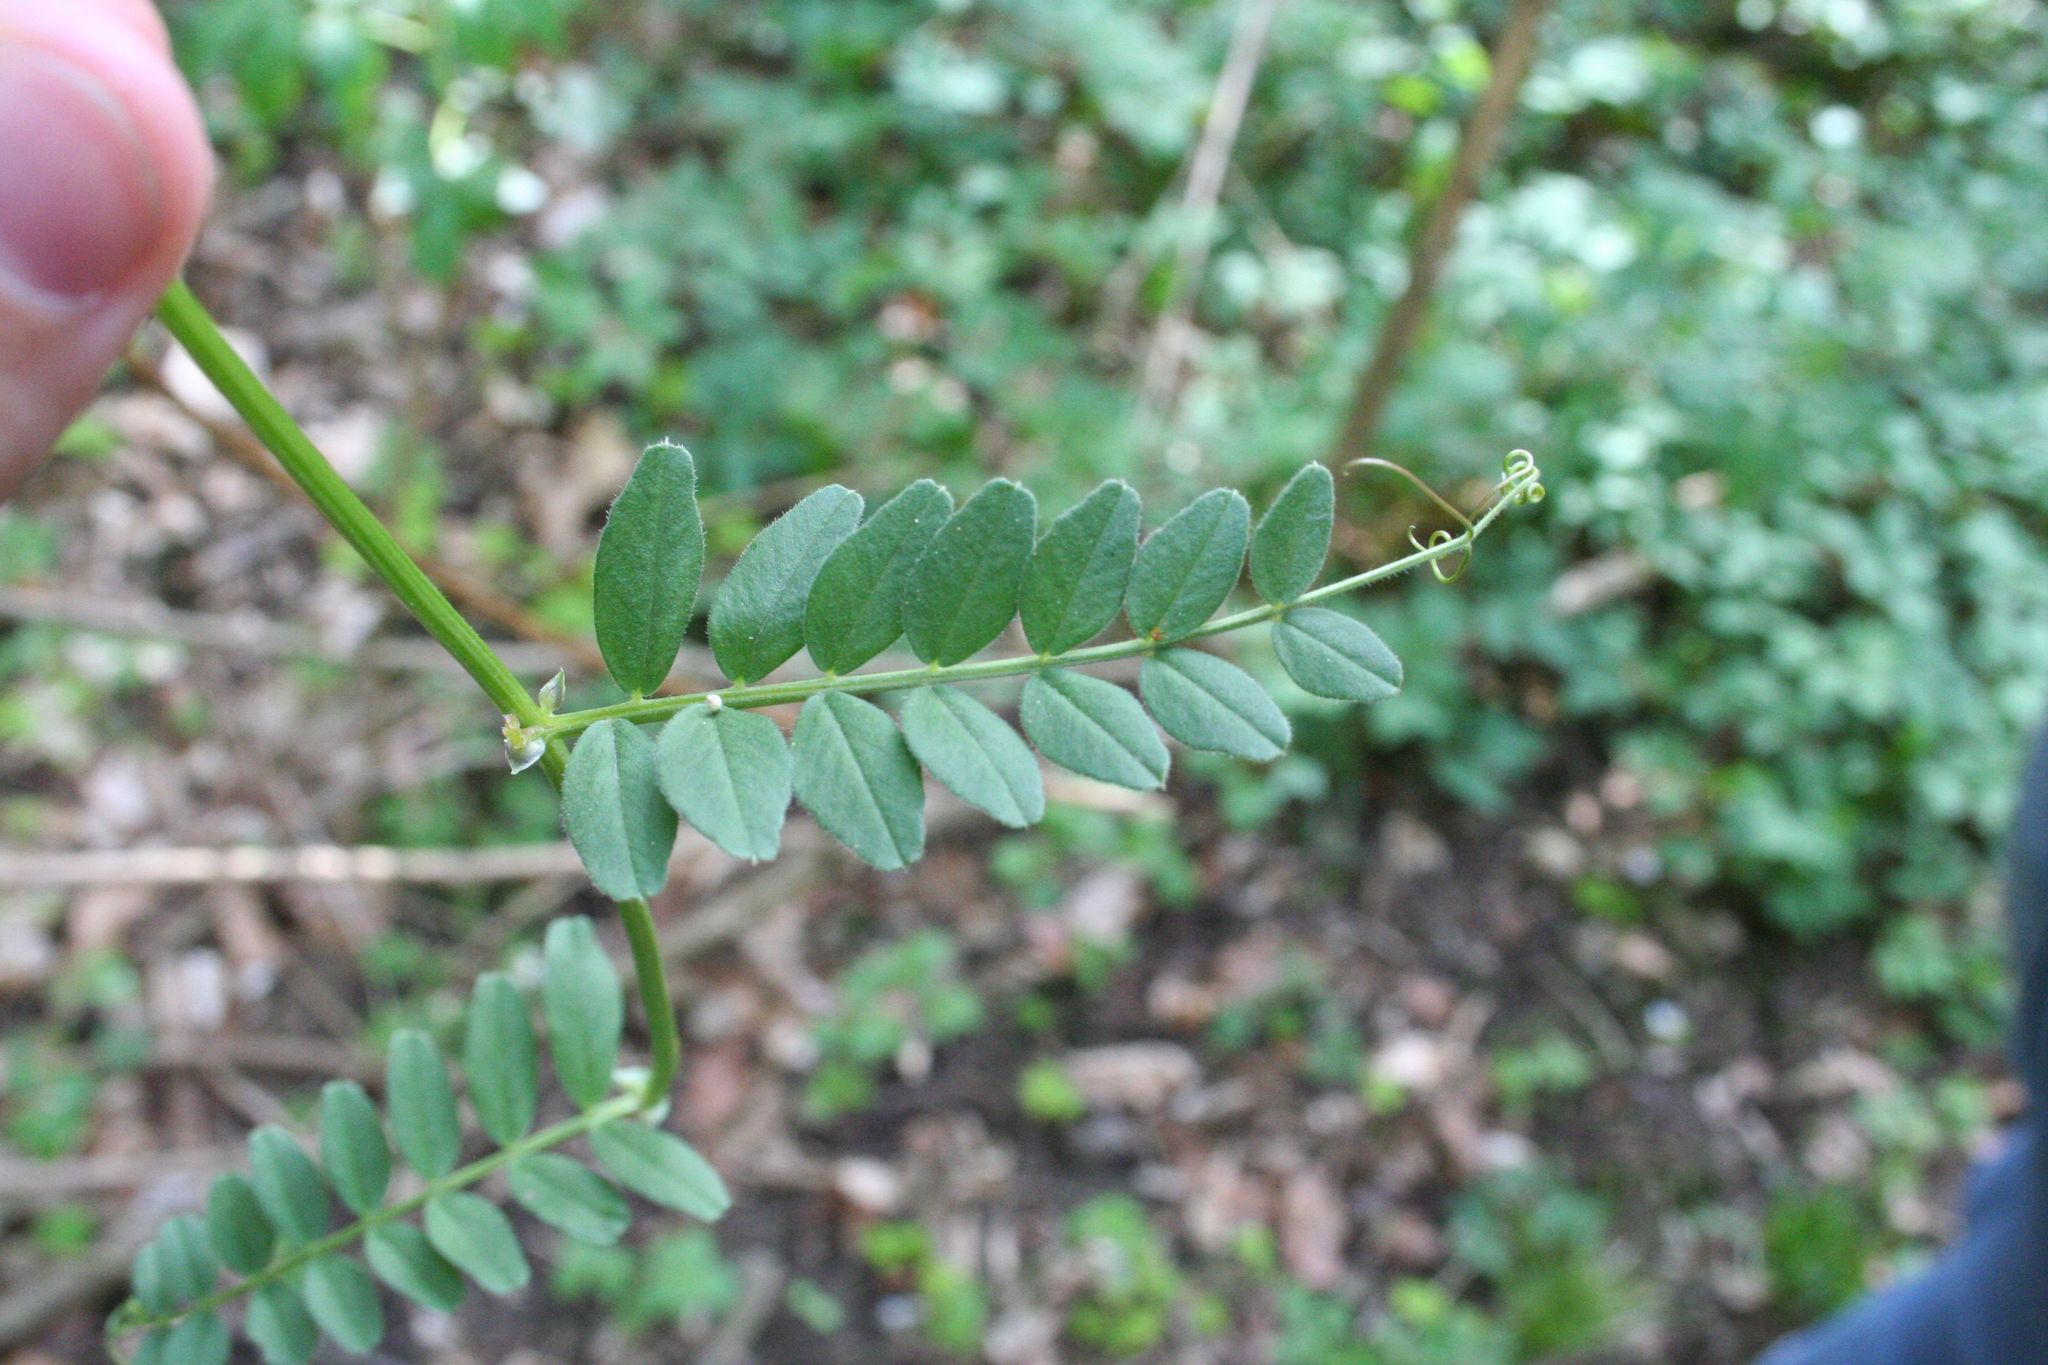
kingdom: Plantae
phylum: Tracheophyta
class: Magnoliopsida
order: Fabales
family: Fabaceae
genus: Vicia
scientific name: Vicia sepium
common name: Bush vetch
